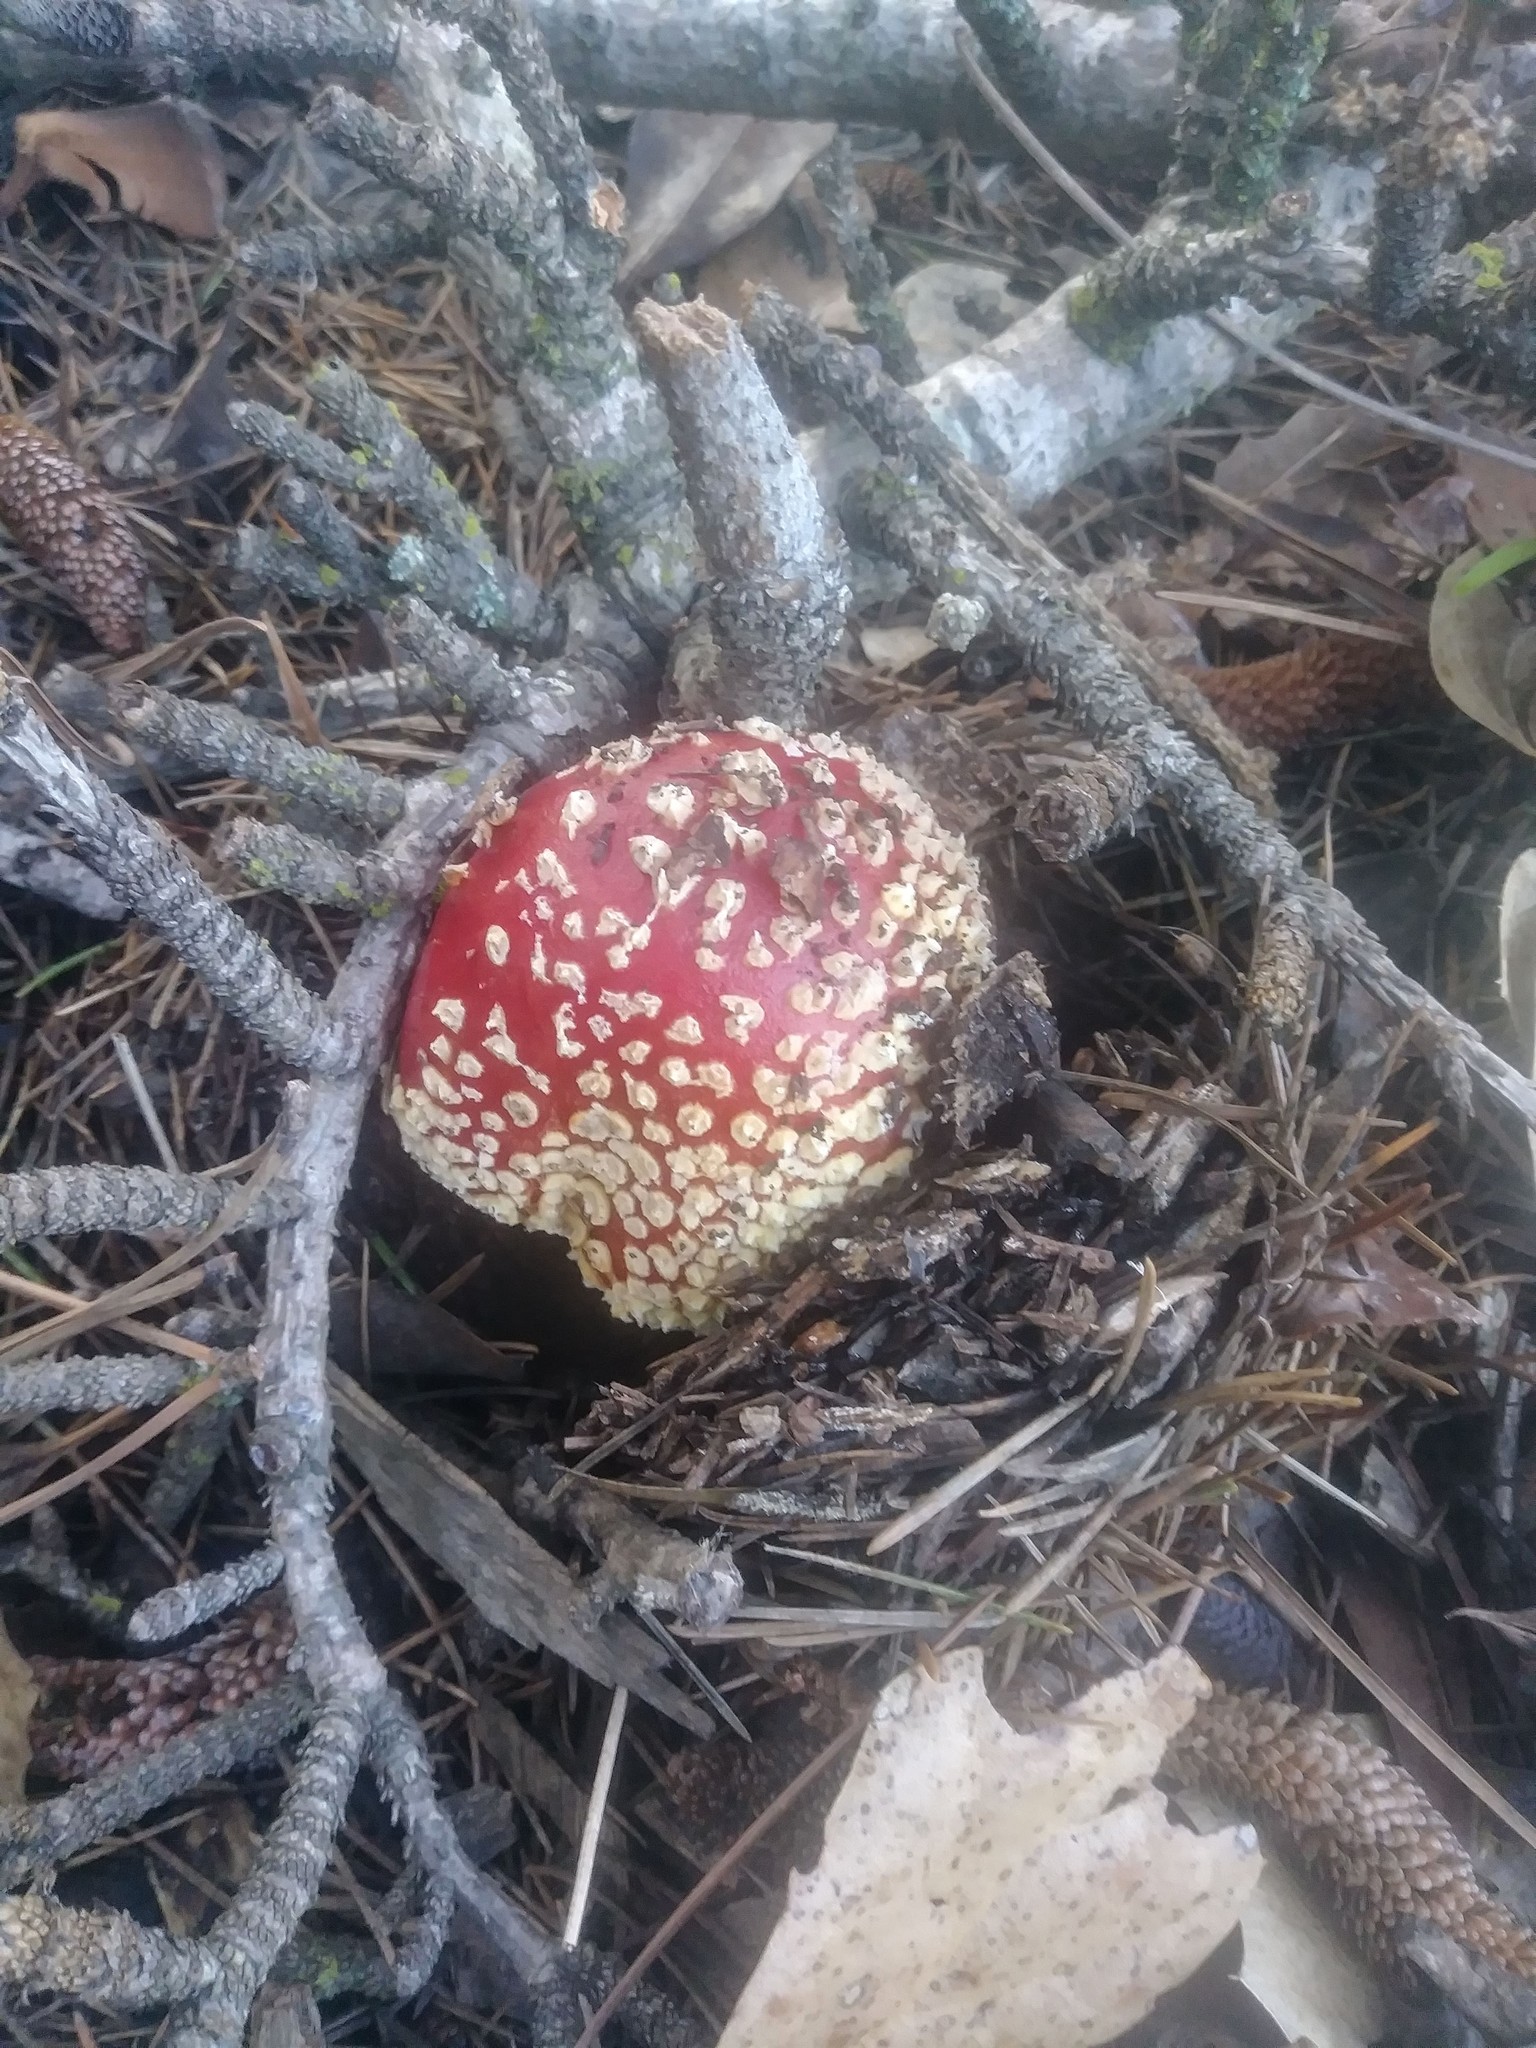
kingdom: Fungi
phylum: Basidiomycota
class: Agaricomycetes
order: Agaricales
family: Amanitaceae
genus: Amanita
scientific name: Amanita muscaria
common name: Fly agaric
